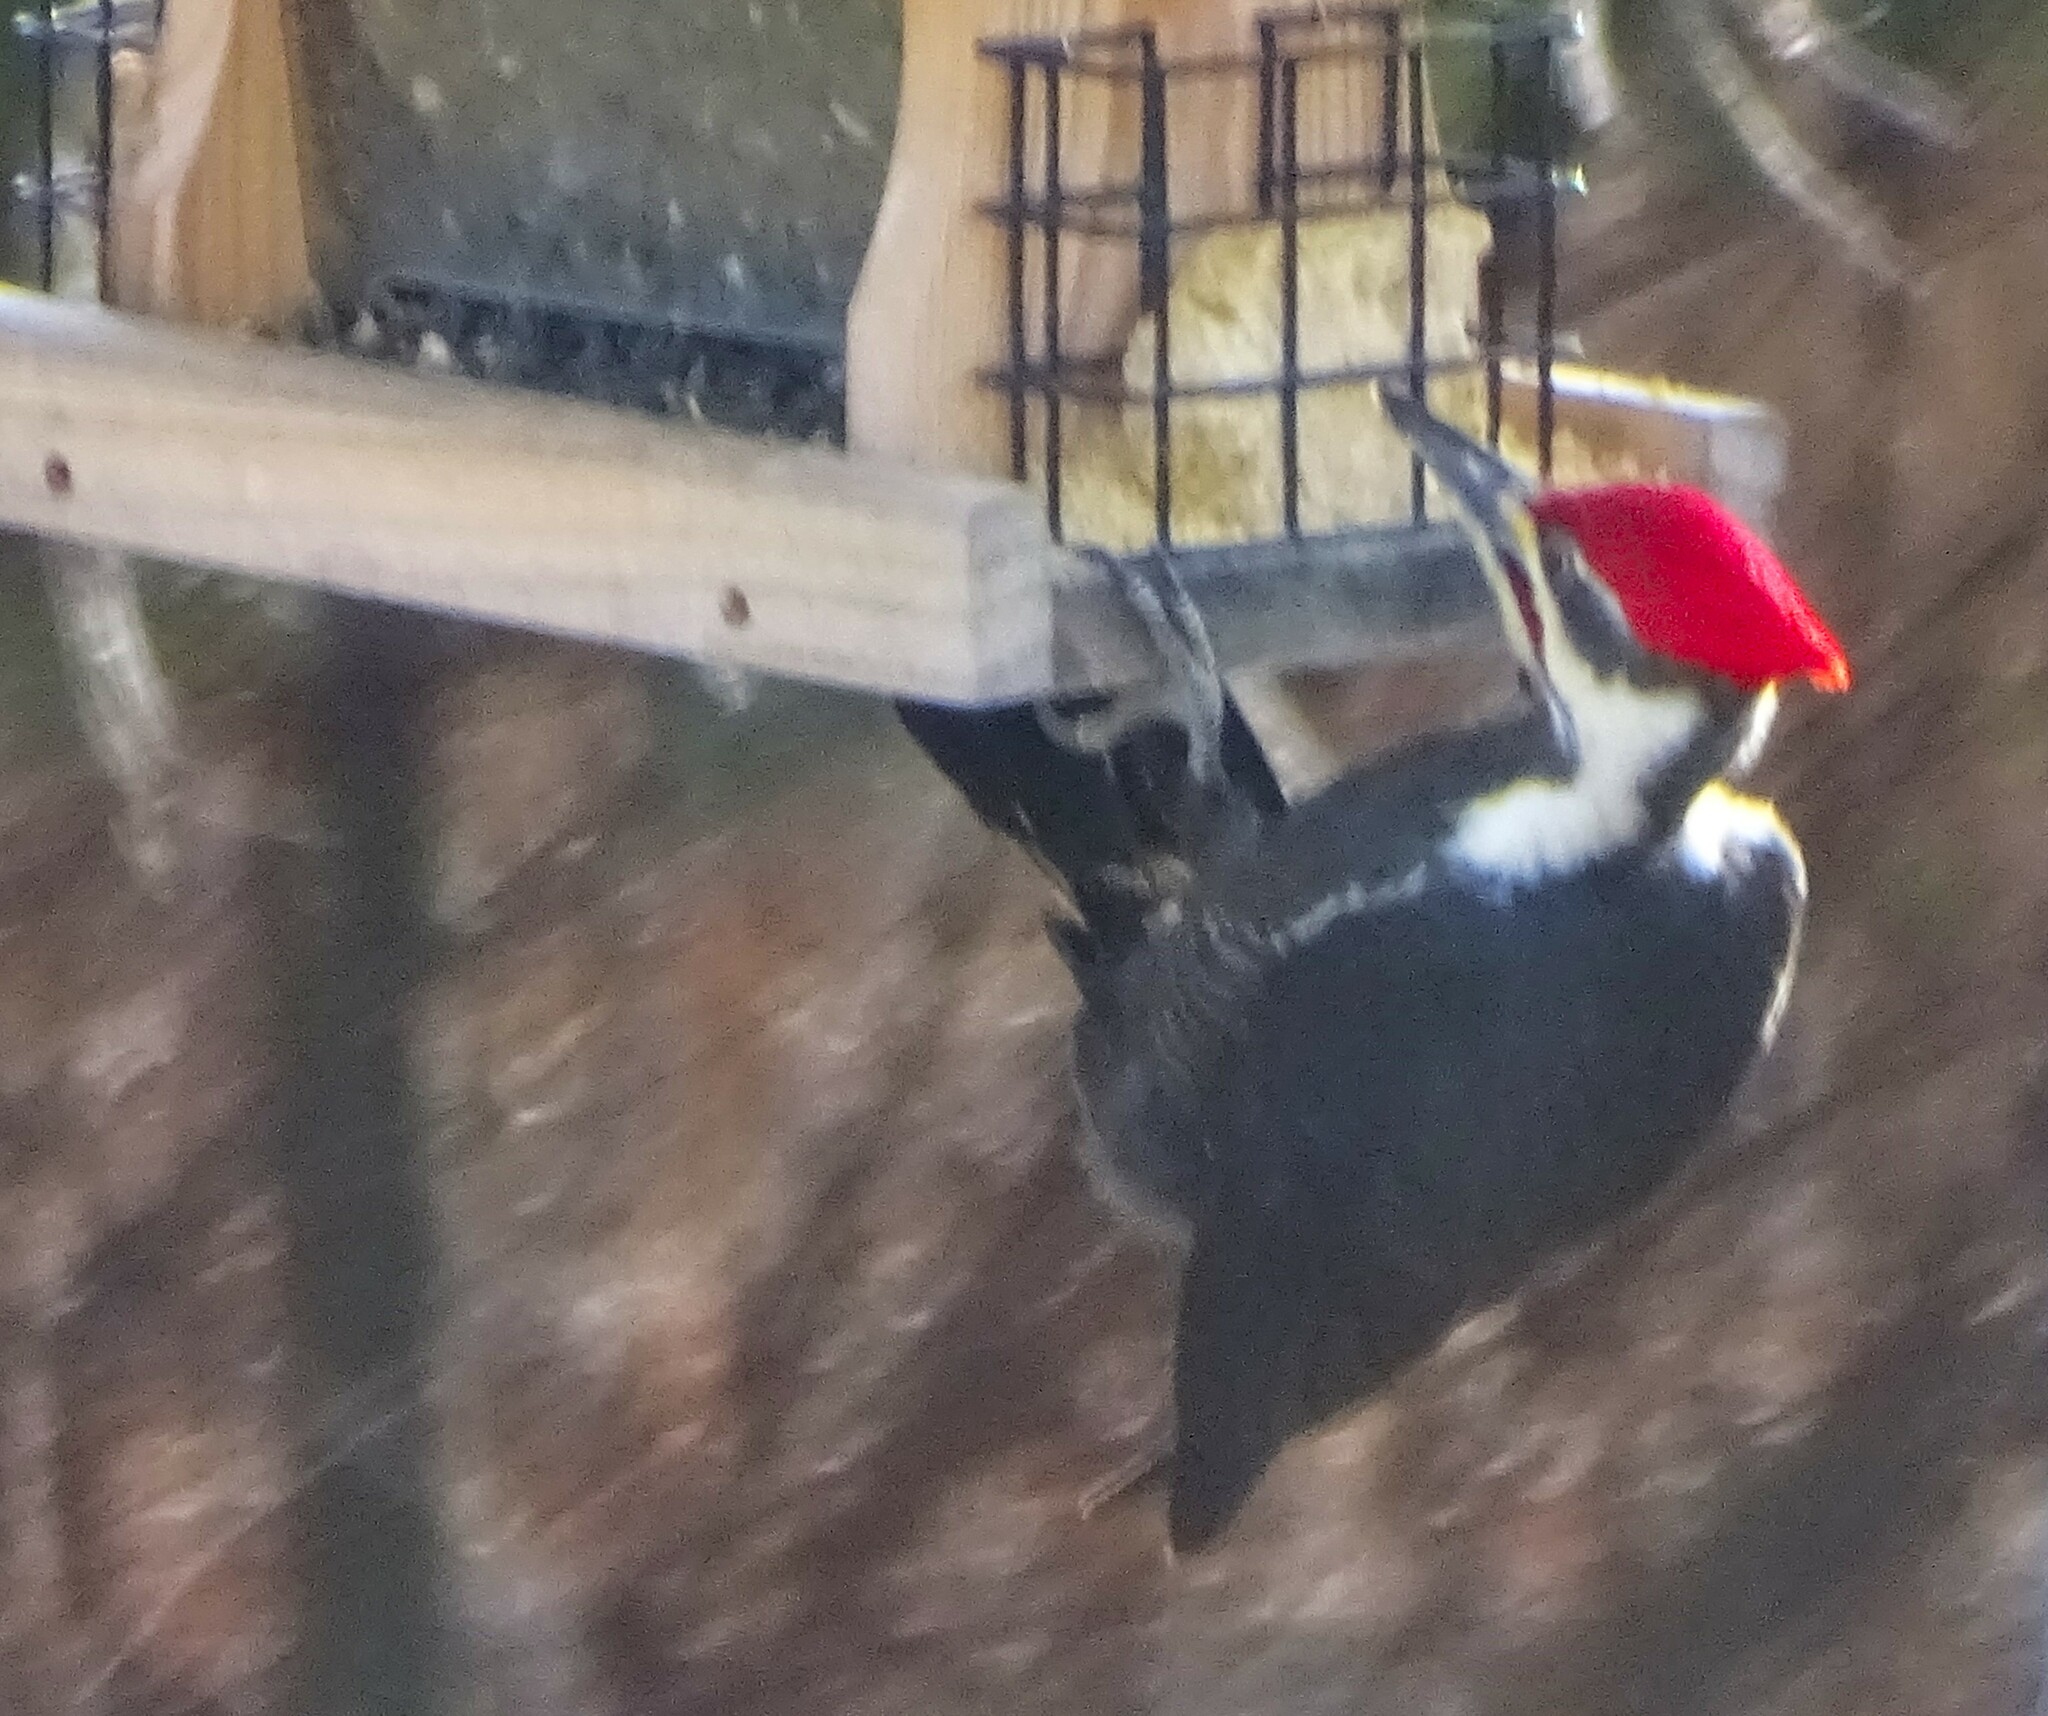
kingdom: Animalia
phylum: Chordata
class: Aves
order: Piciformes
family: Picidae
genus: Dryocopus
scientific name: Dryocopus pileatus
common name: Pileated woodpecker
